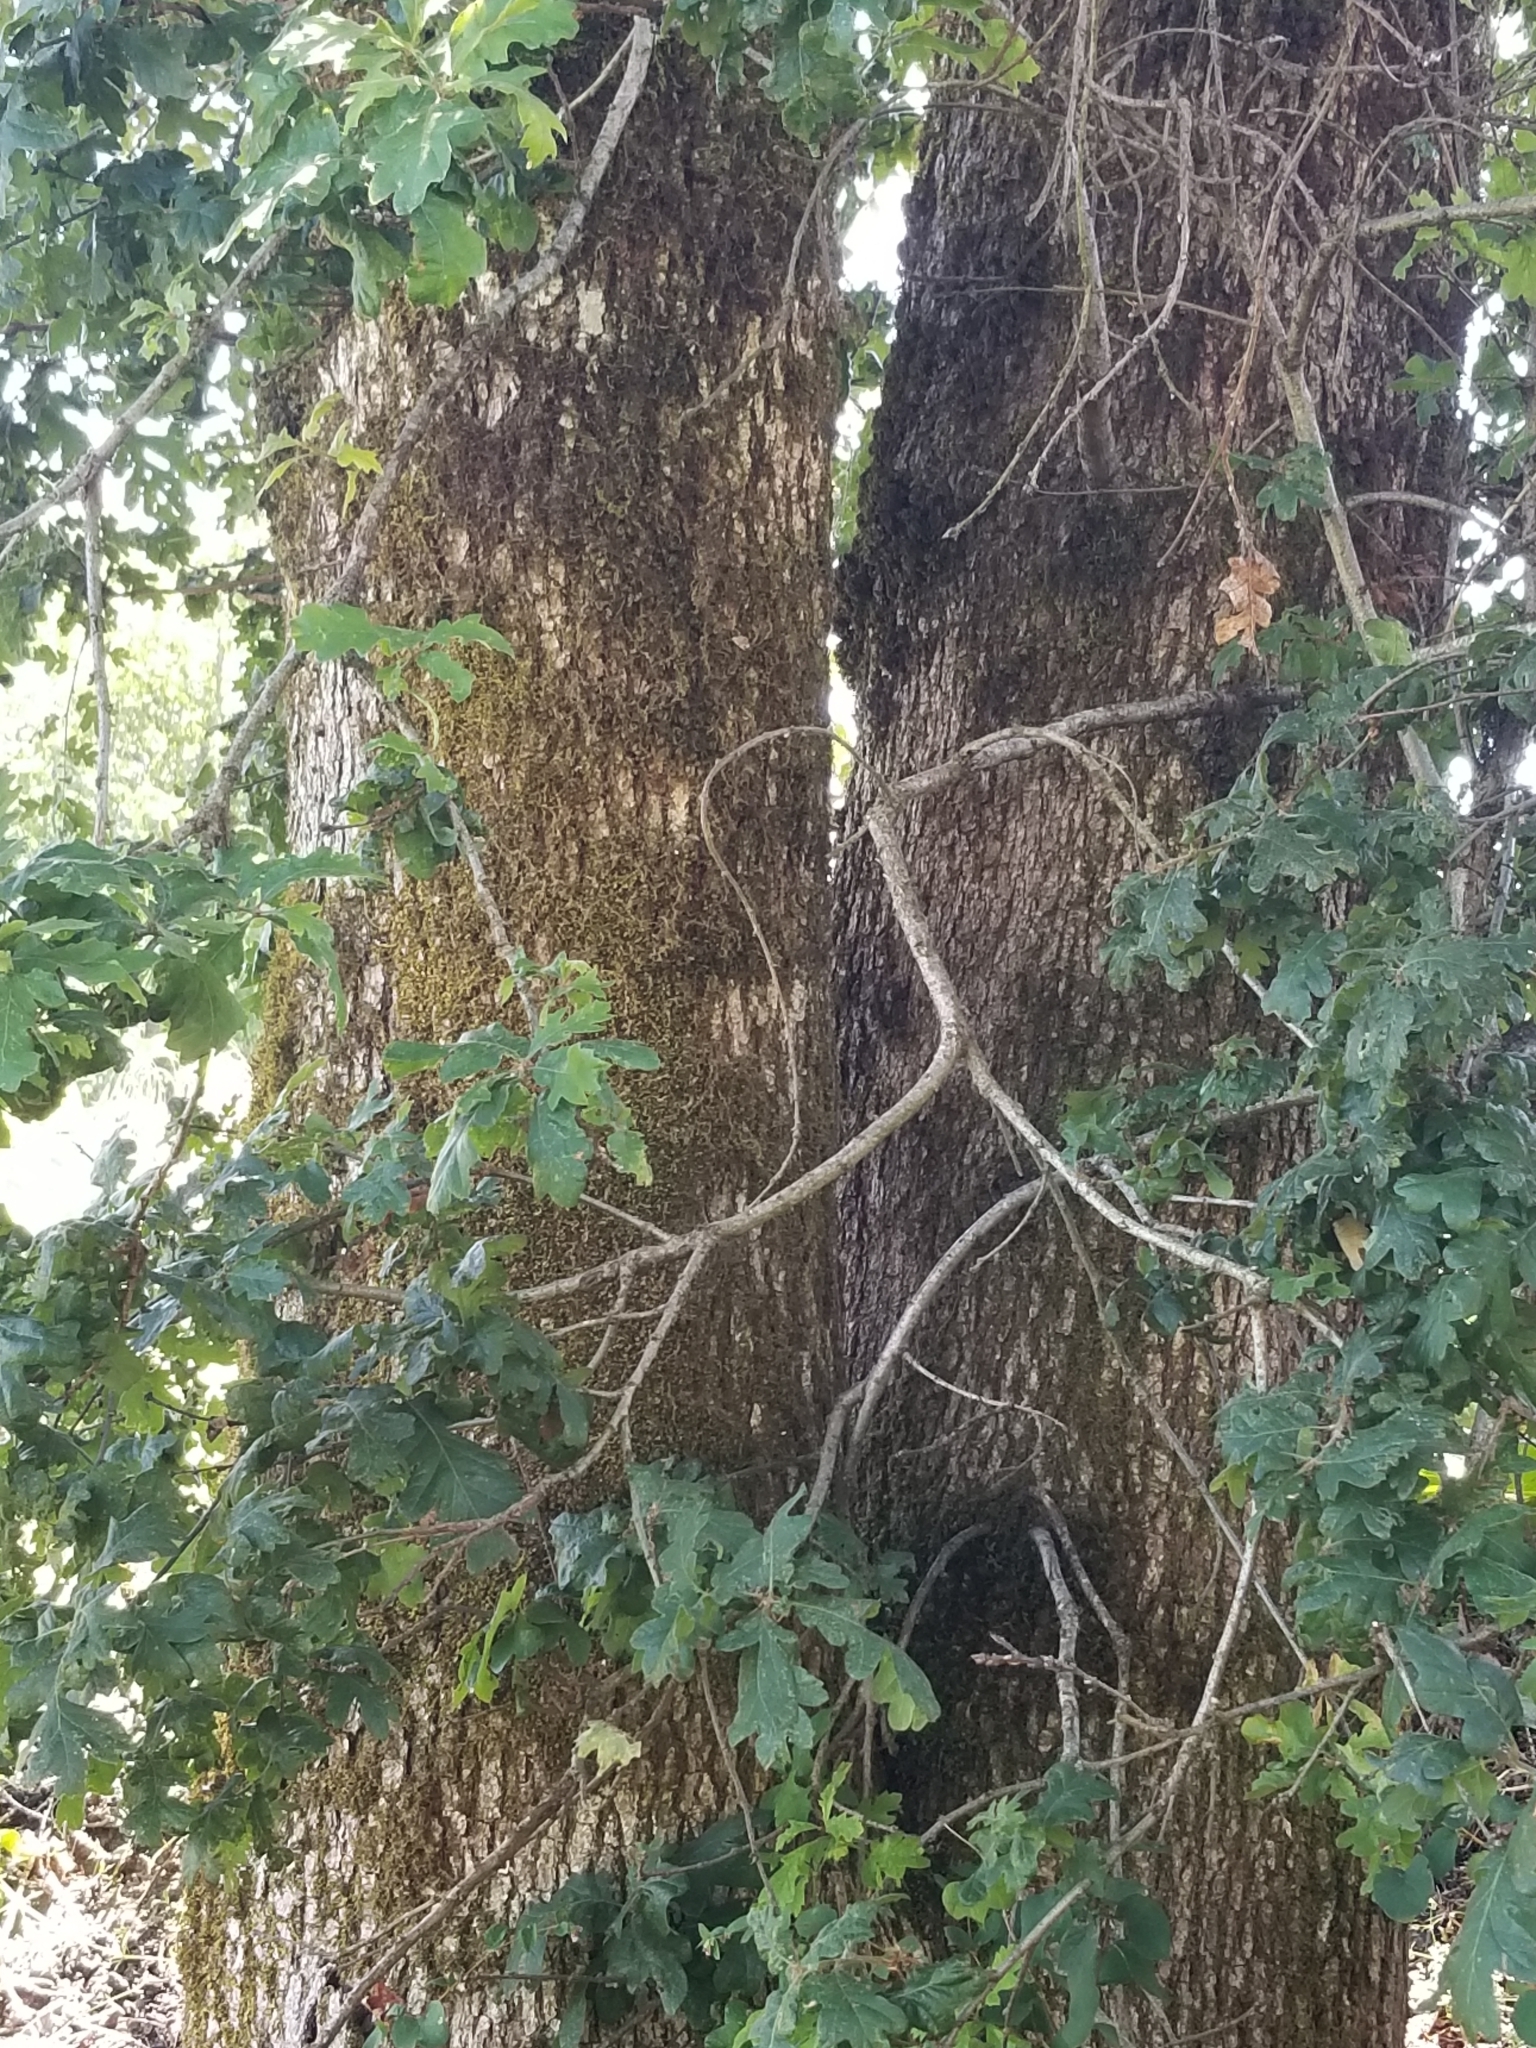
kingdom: Plantae
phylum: Tracheophyta
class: Magnoliopsida
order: Fagales
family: Fagaceae
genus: Quercus
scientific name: Quercus garryana
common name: Garry oak
